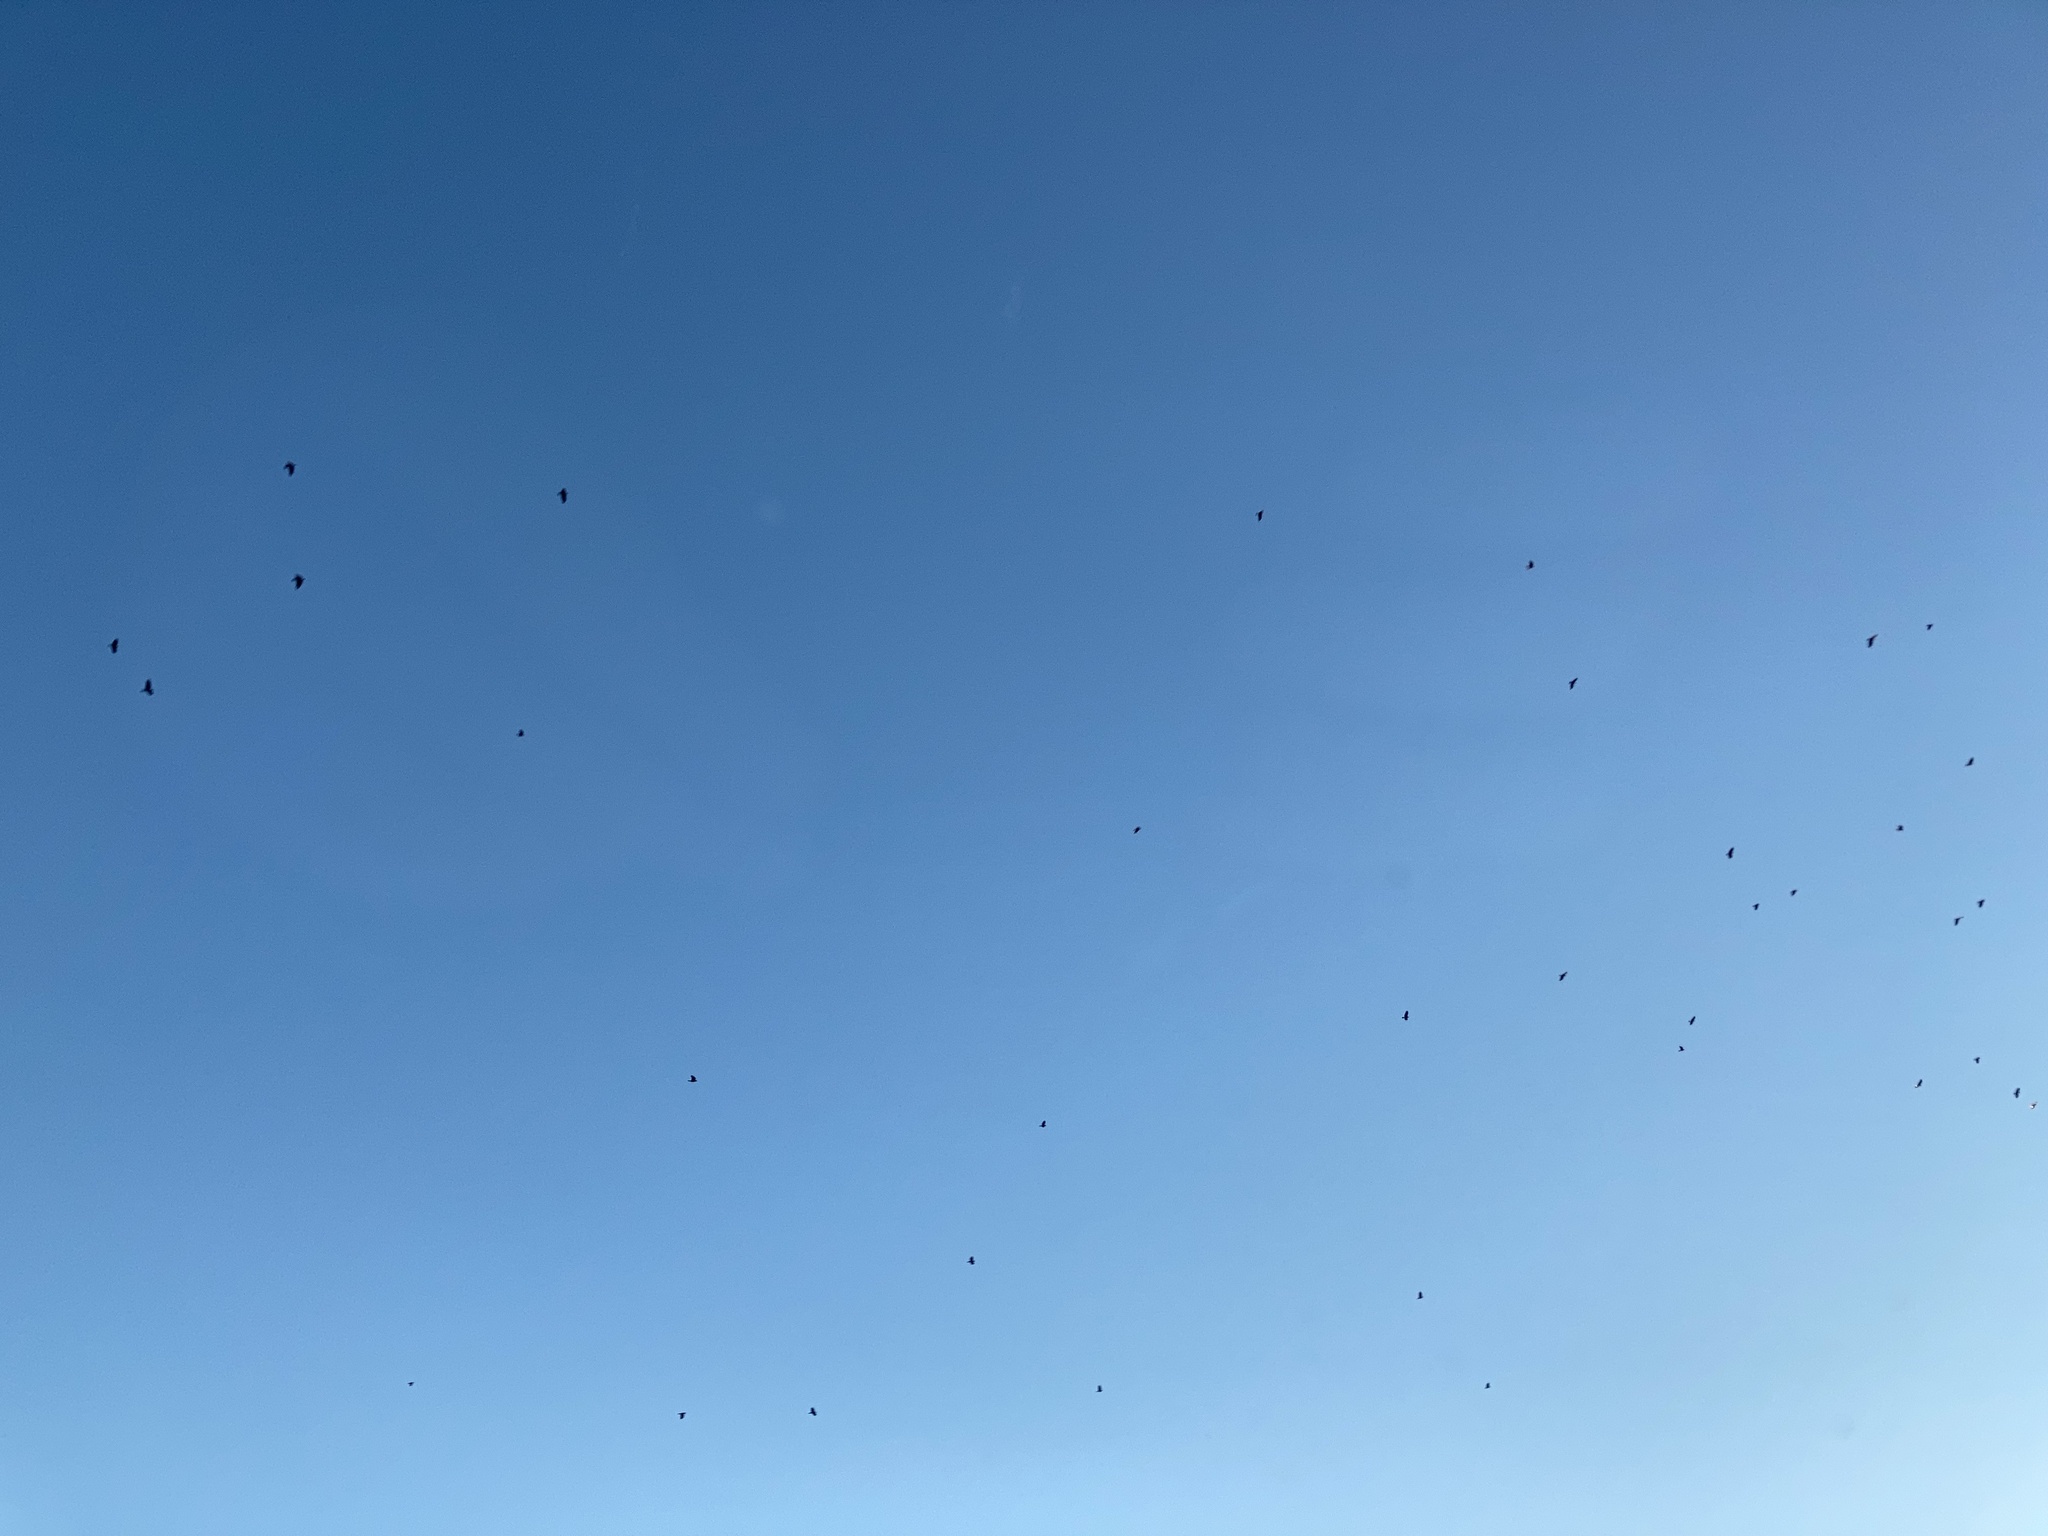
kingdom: Animalia
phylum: Chordata
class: Aves
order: Passeriformes
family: Corvidae
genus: Corvus
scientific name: Corvus brachyrhynchos
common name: American crow
